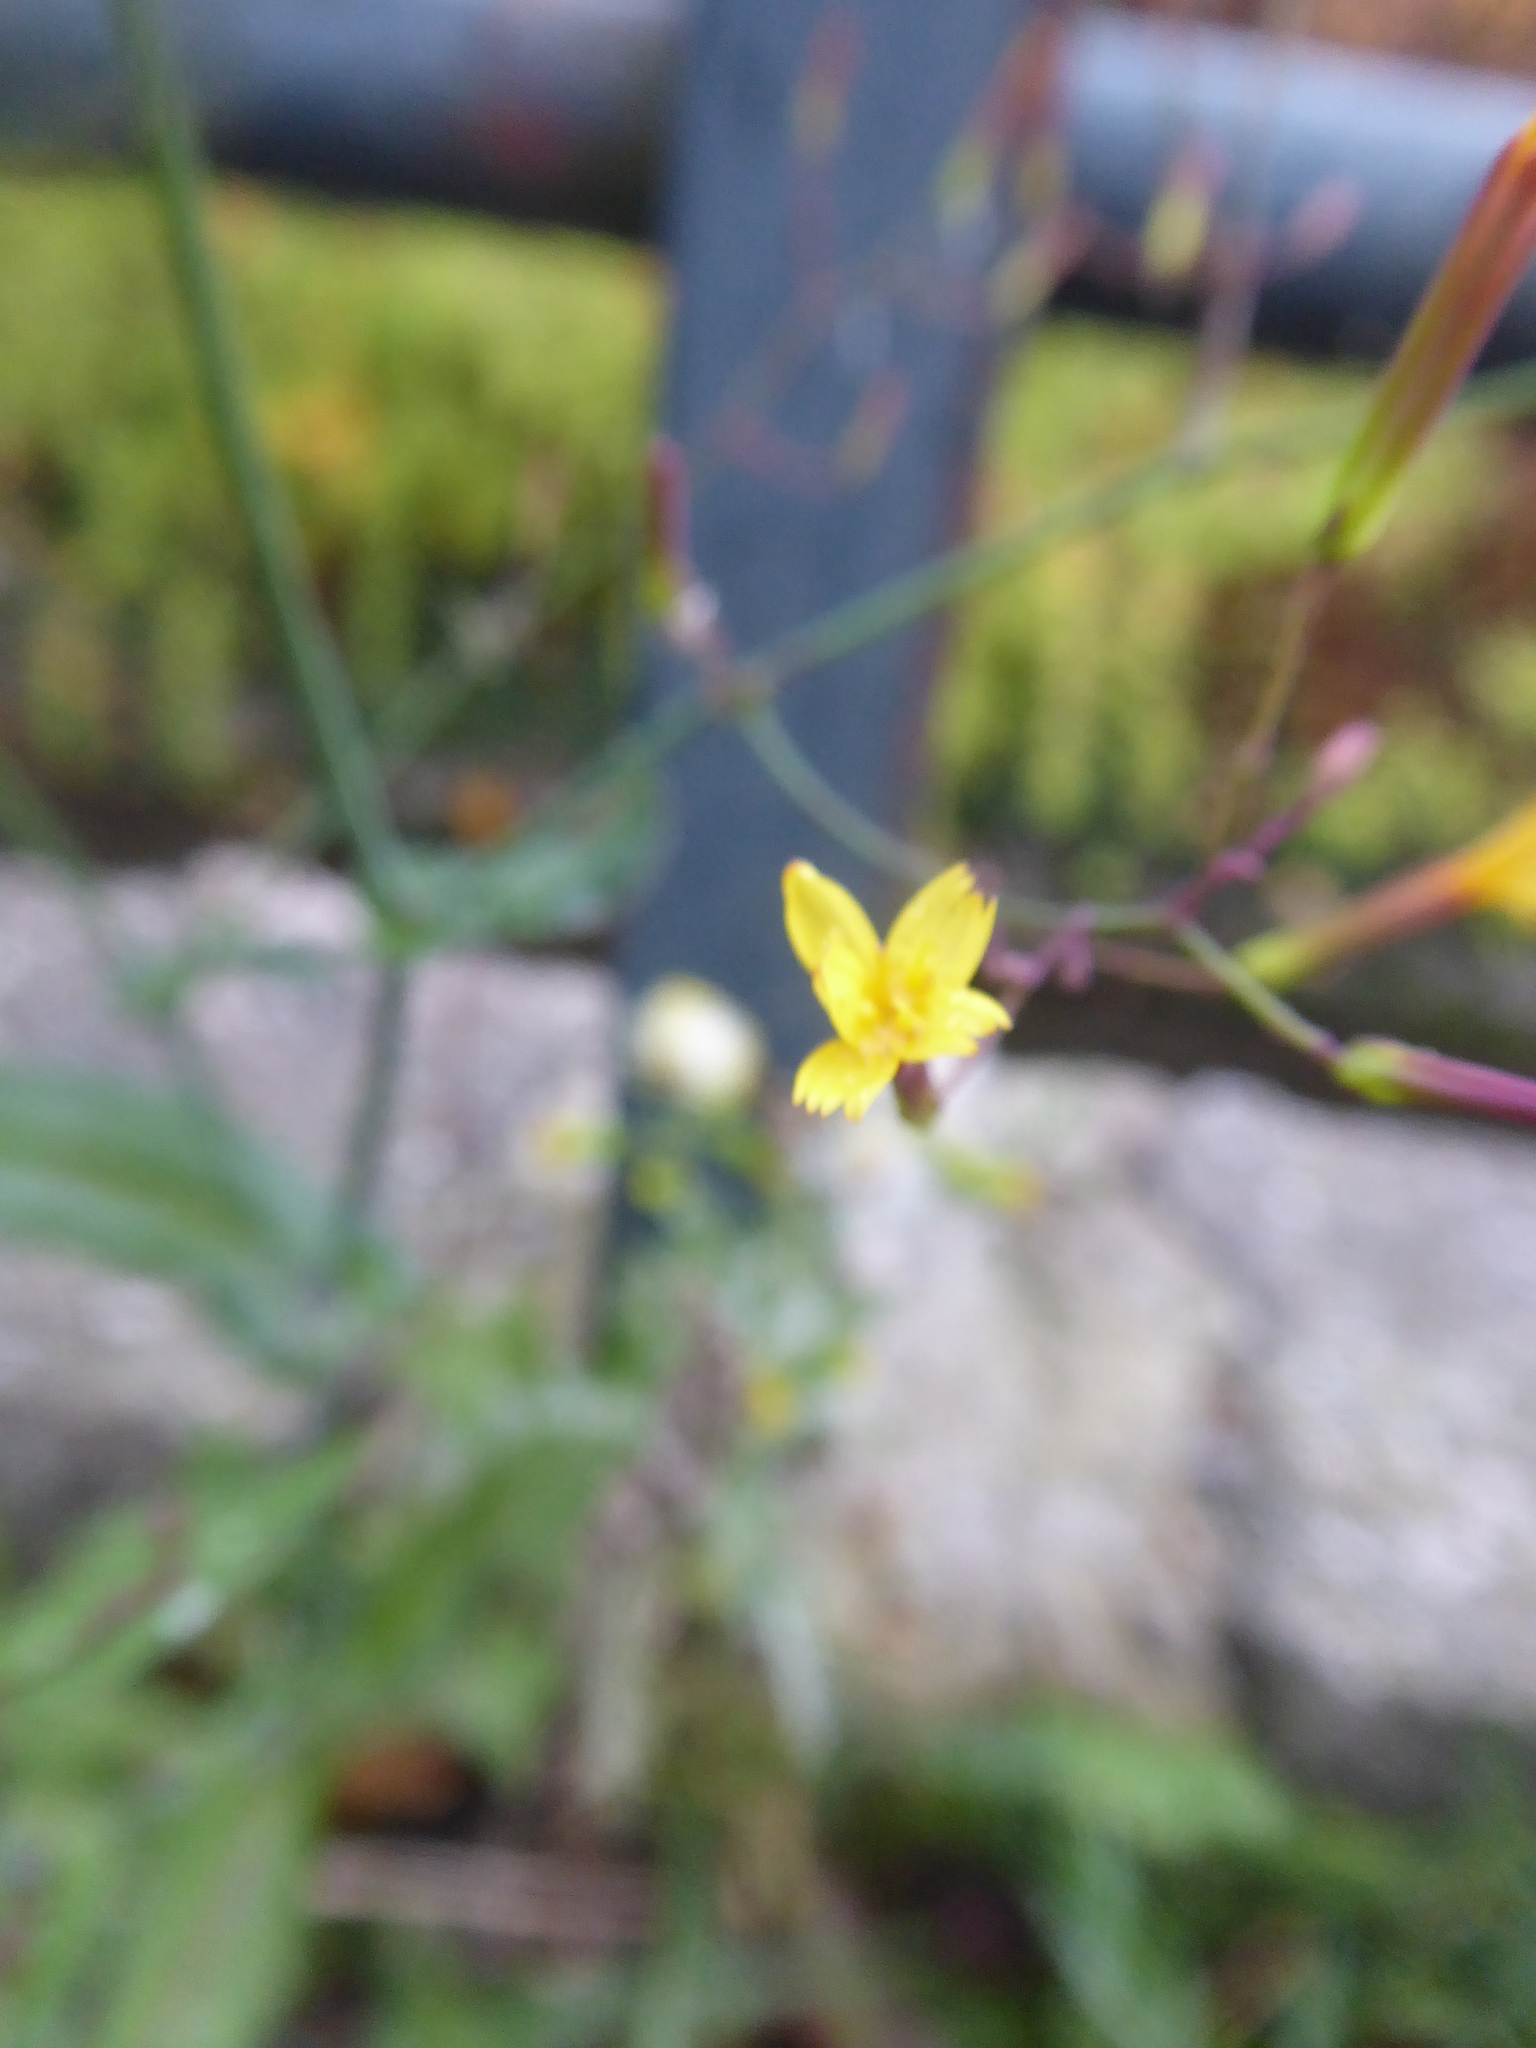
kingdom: Plantae
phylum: Tracheophyta
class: Magnoliopsida
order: Asterales
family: Asteraceae
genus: Mycelis
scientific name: Mycelis muralis
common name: Wall lettuce
